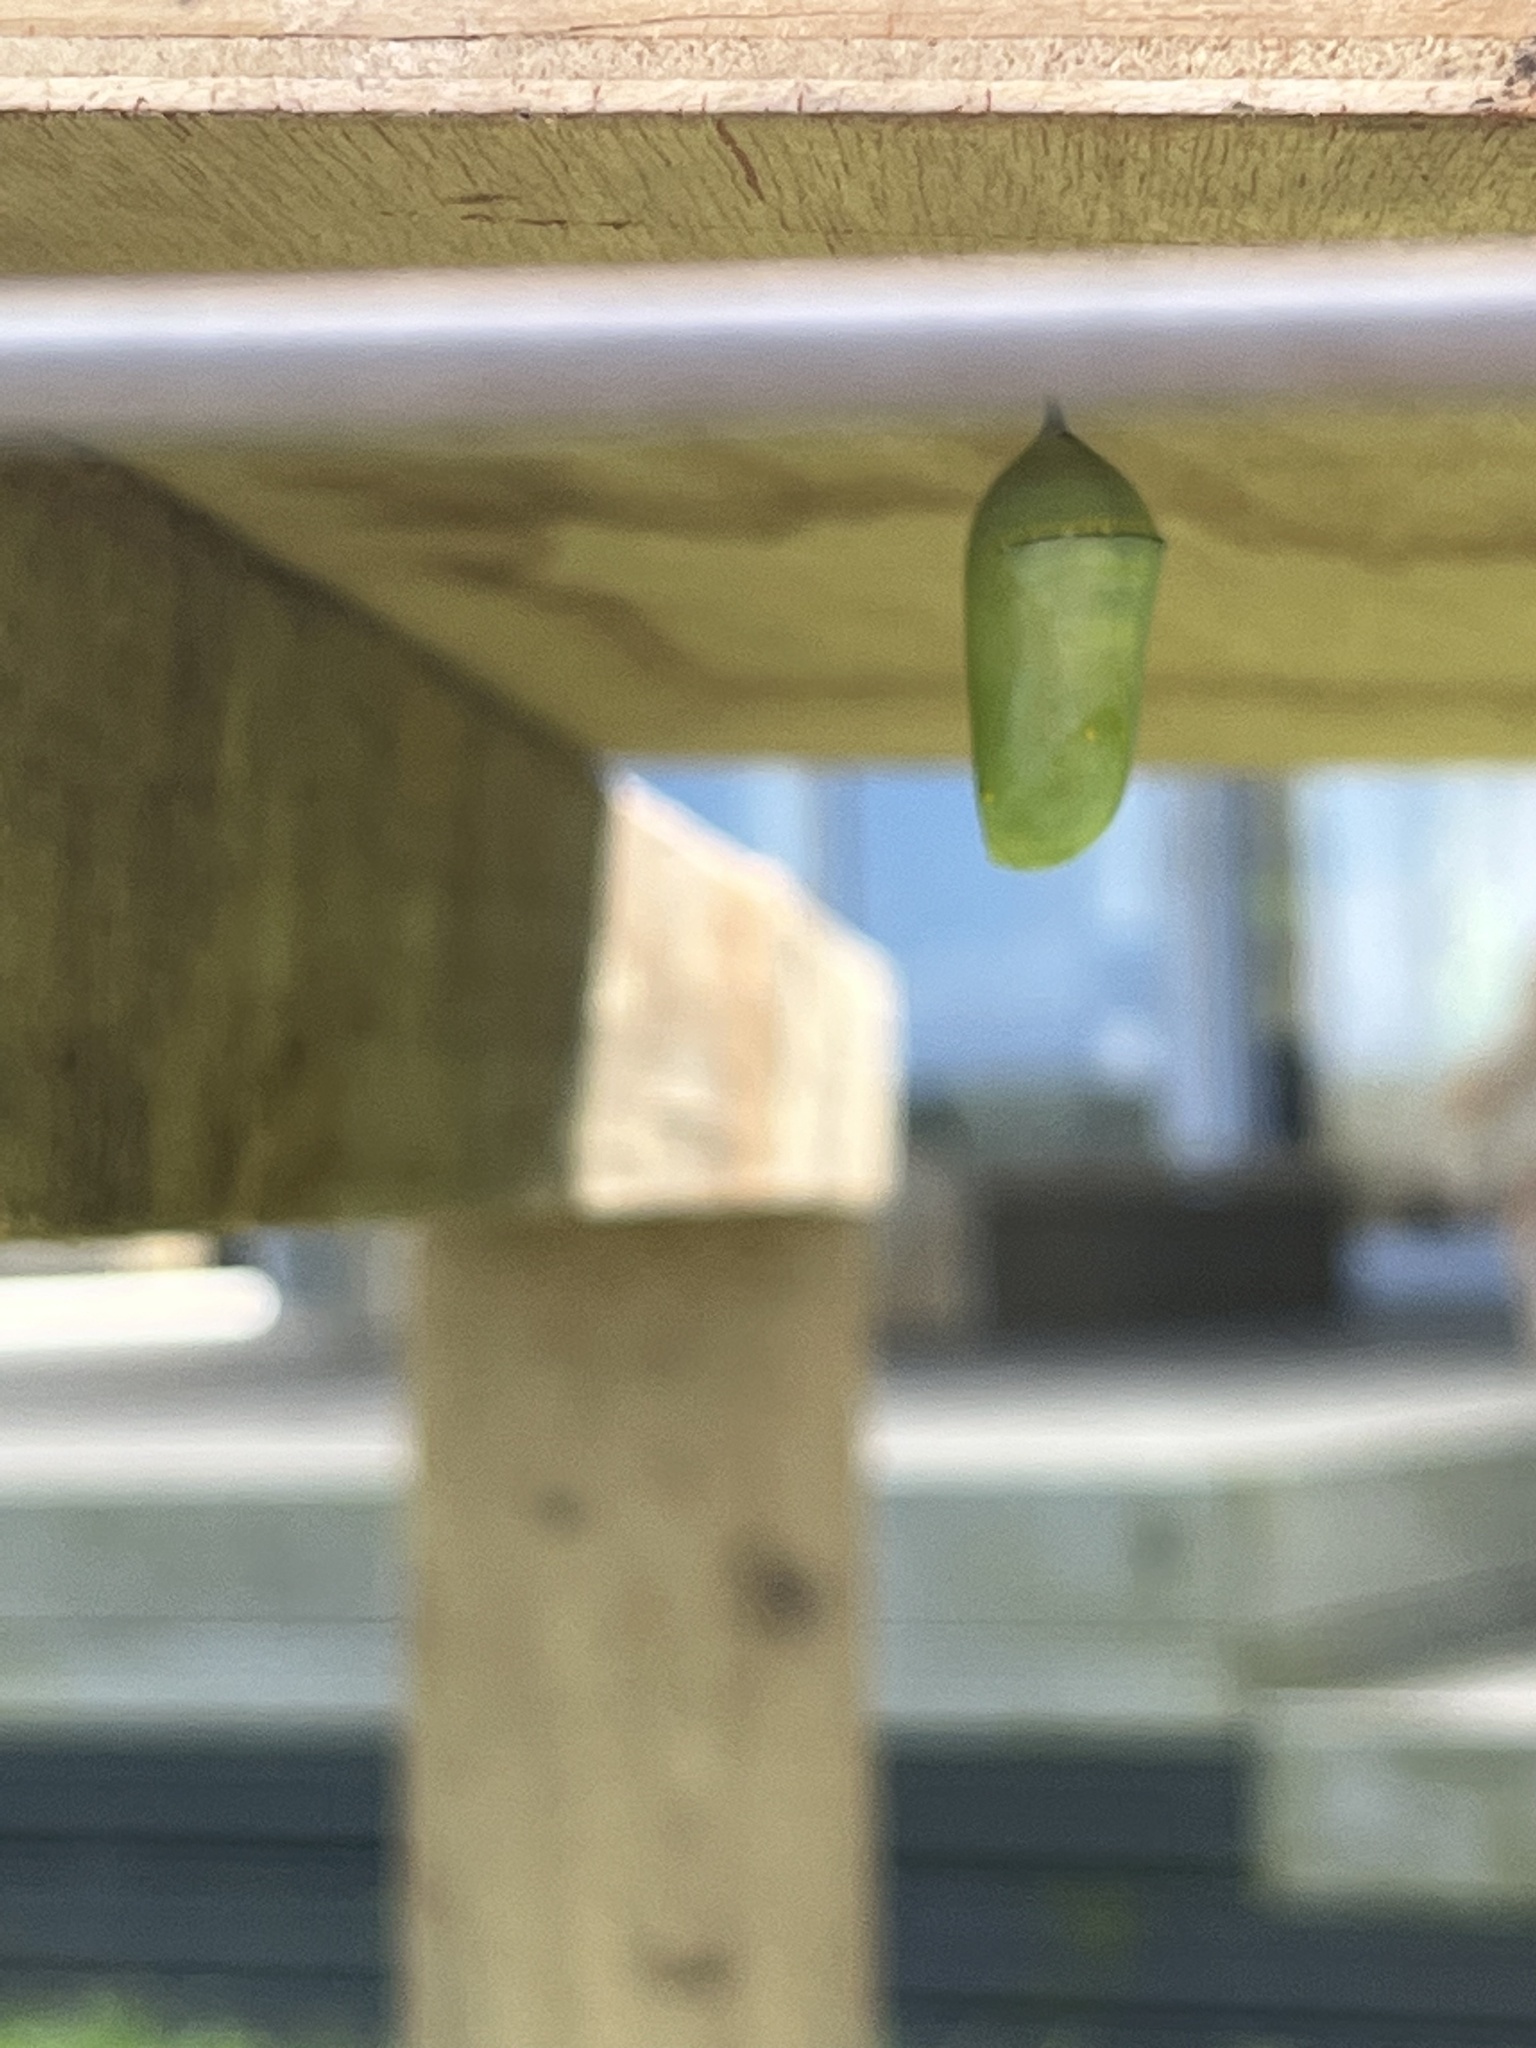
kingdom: Animalia
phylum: Arthropoda
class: Insecta
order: Lepidoptera
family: Nymphalidae
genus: Danaus
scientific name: Danaus plexippus
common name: Monarch
